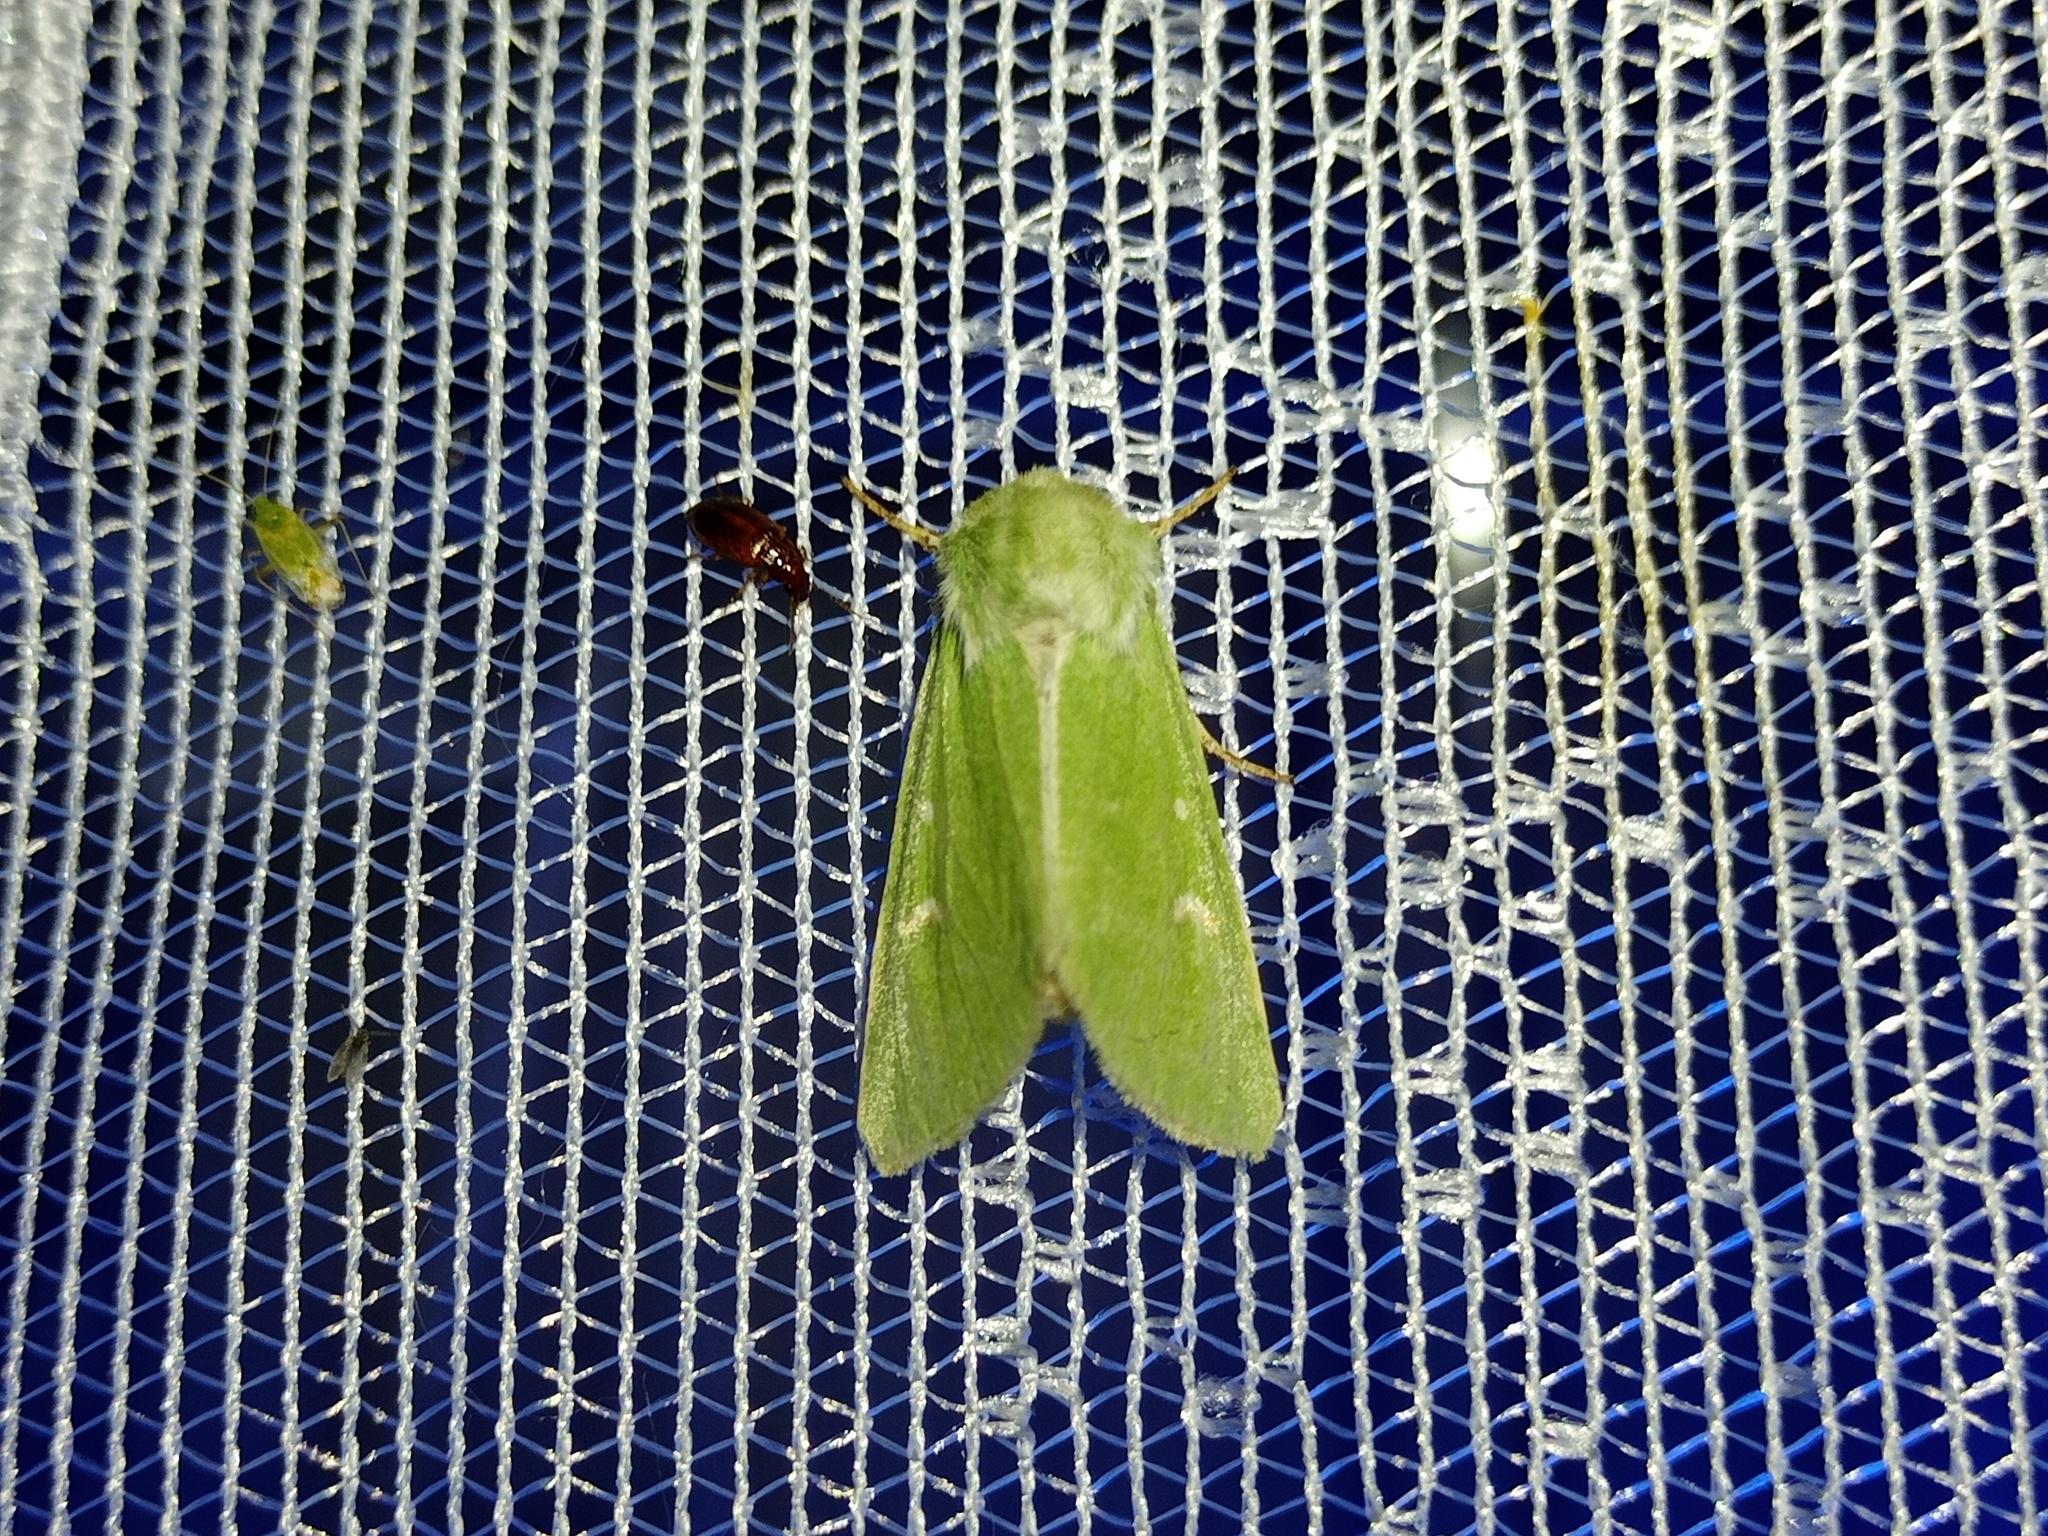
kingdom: Animalia
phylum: Arthropoda
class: Insecta
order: Lepidoptera
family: Noctuidae
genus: Calamia
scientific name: Calamia tridens
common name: Burren green
